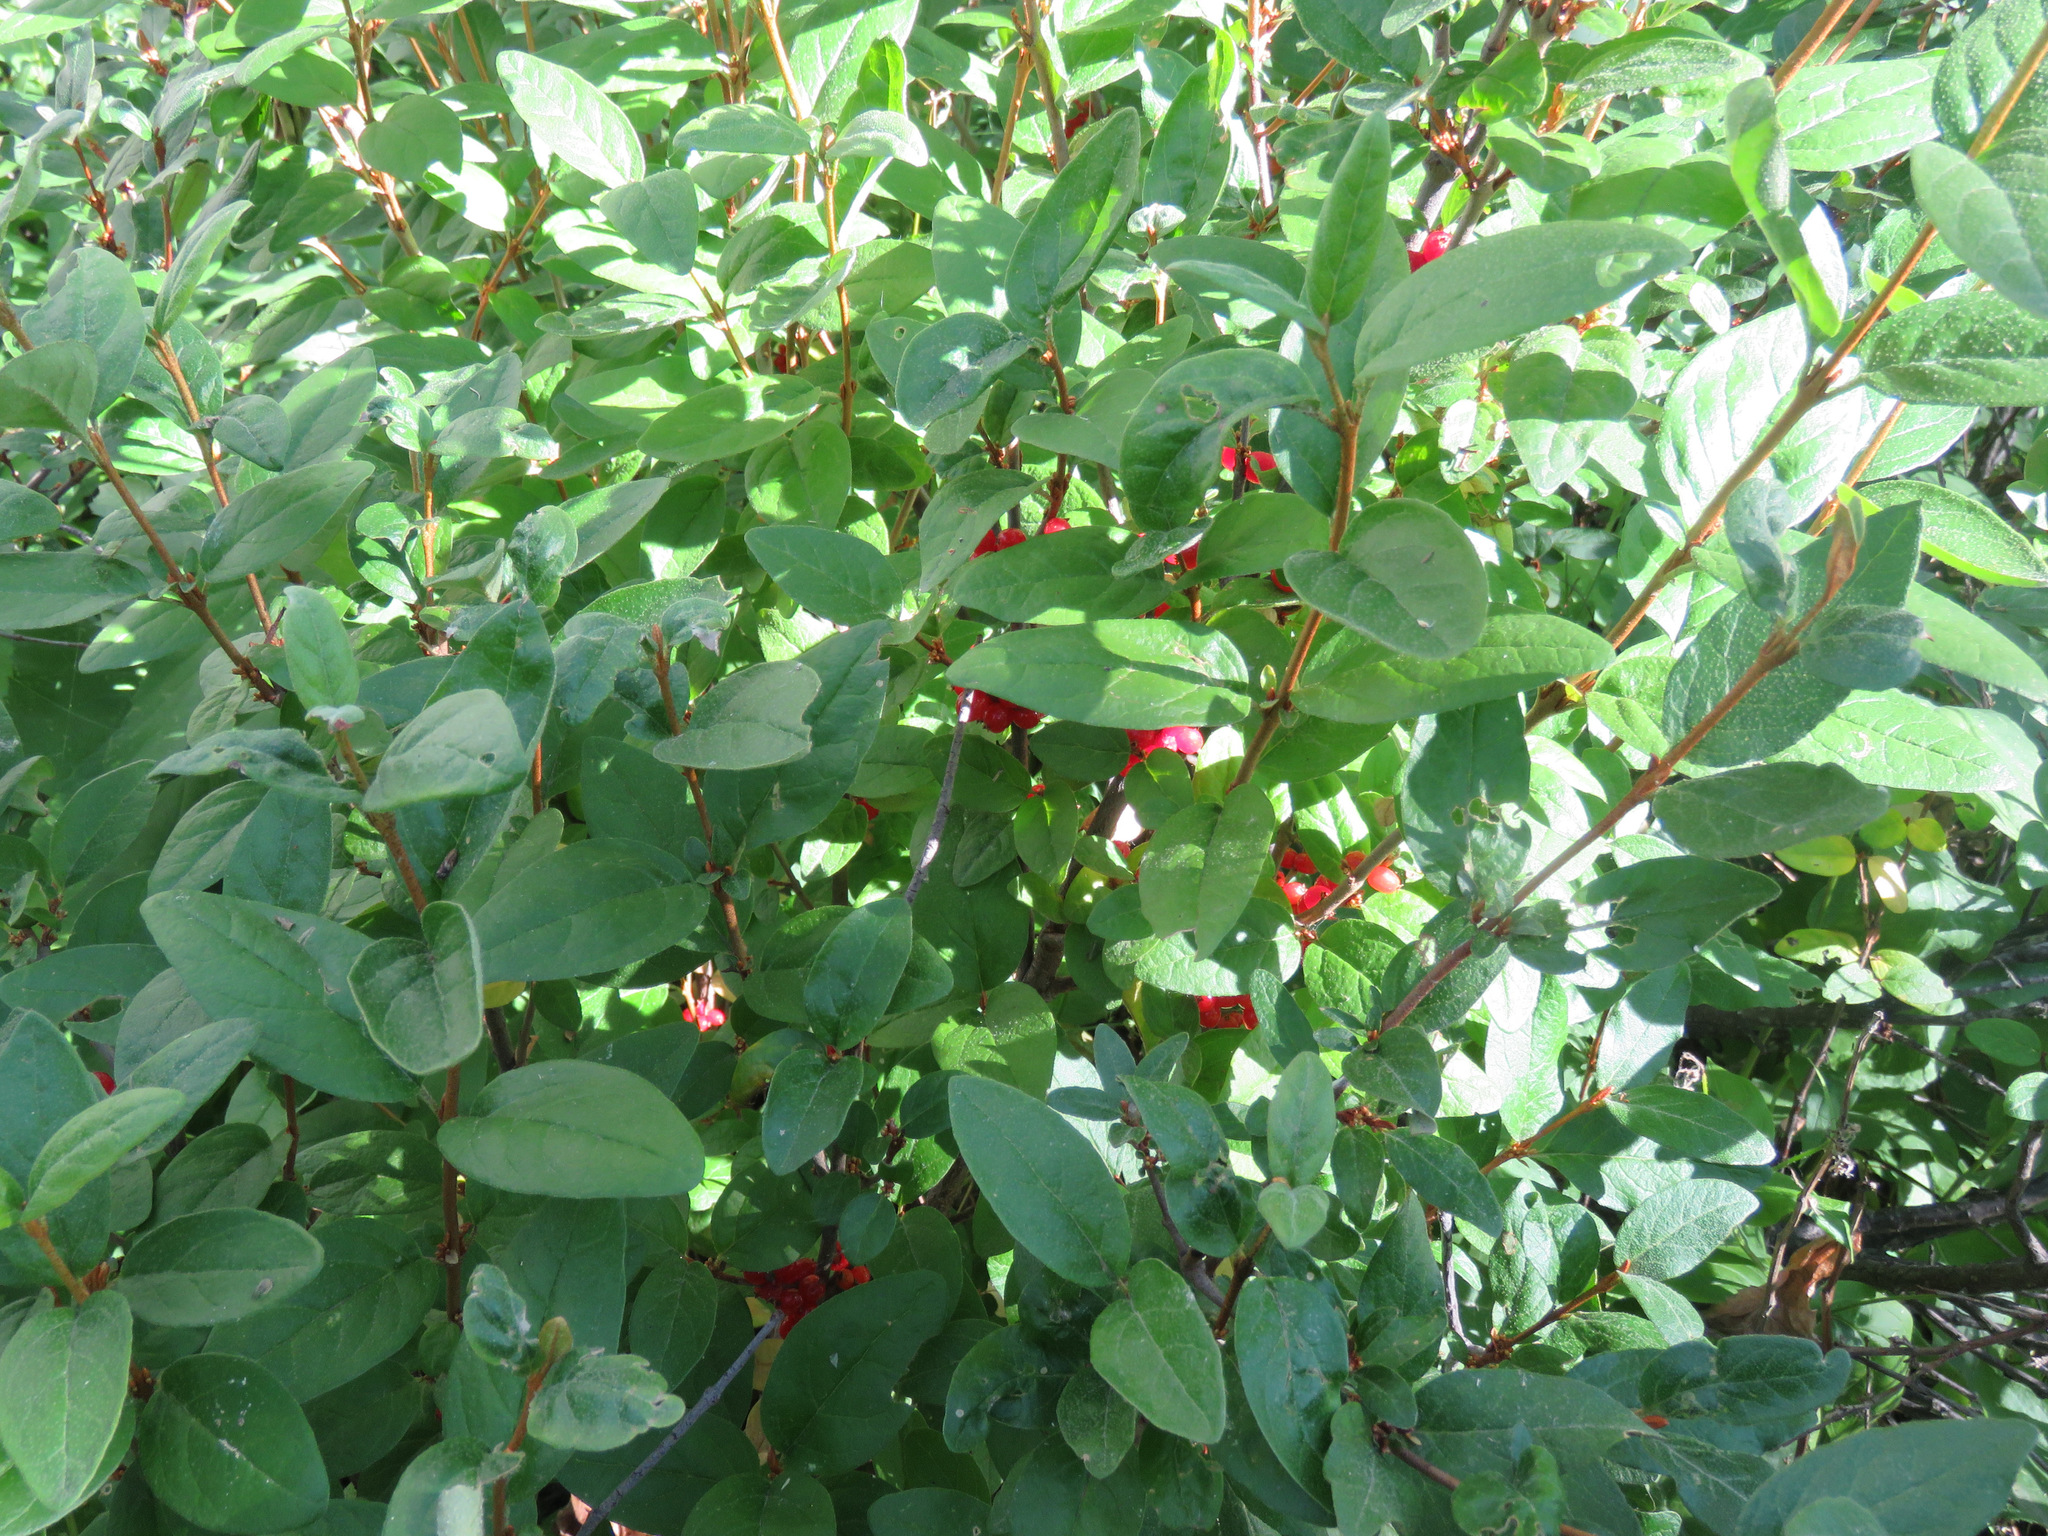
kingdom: Plantae
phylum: Tracheophyta
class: Magnoliopsida
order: Rosales
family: Elaeagnaceae
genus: Shepherdia
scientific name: Shepherdia canadensis
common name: Soapberry
